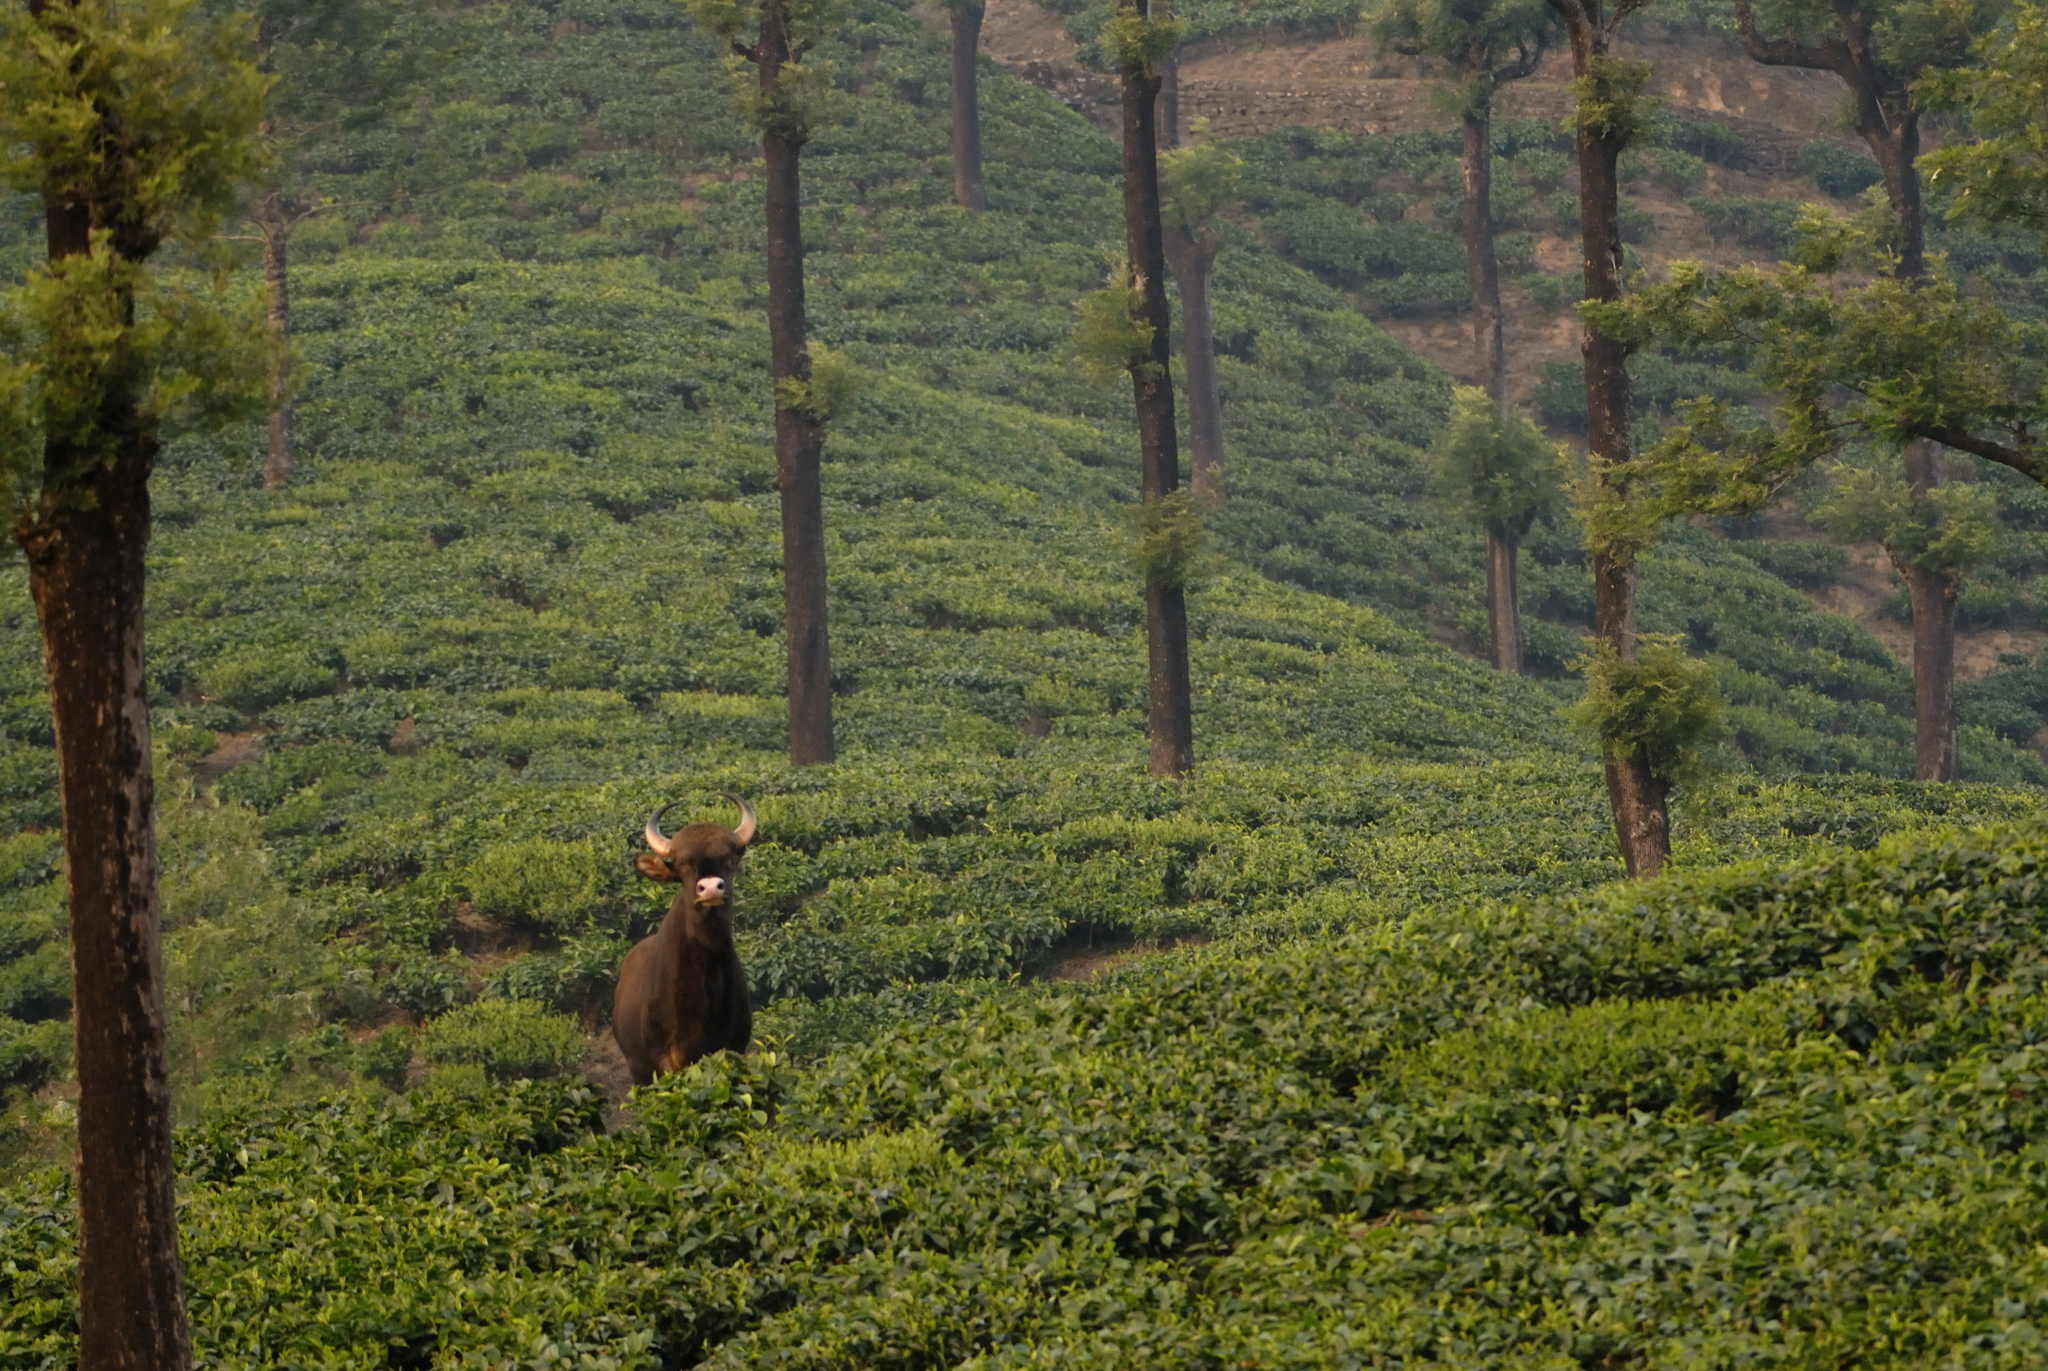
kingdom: Animalia
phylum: Chordata
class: Mammalia
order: Artiodactyla
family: Bovidae
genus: Bos
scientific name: Bos frontalis
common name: Gaur
